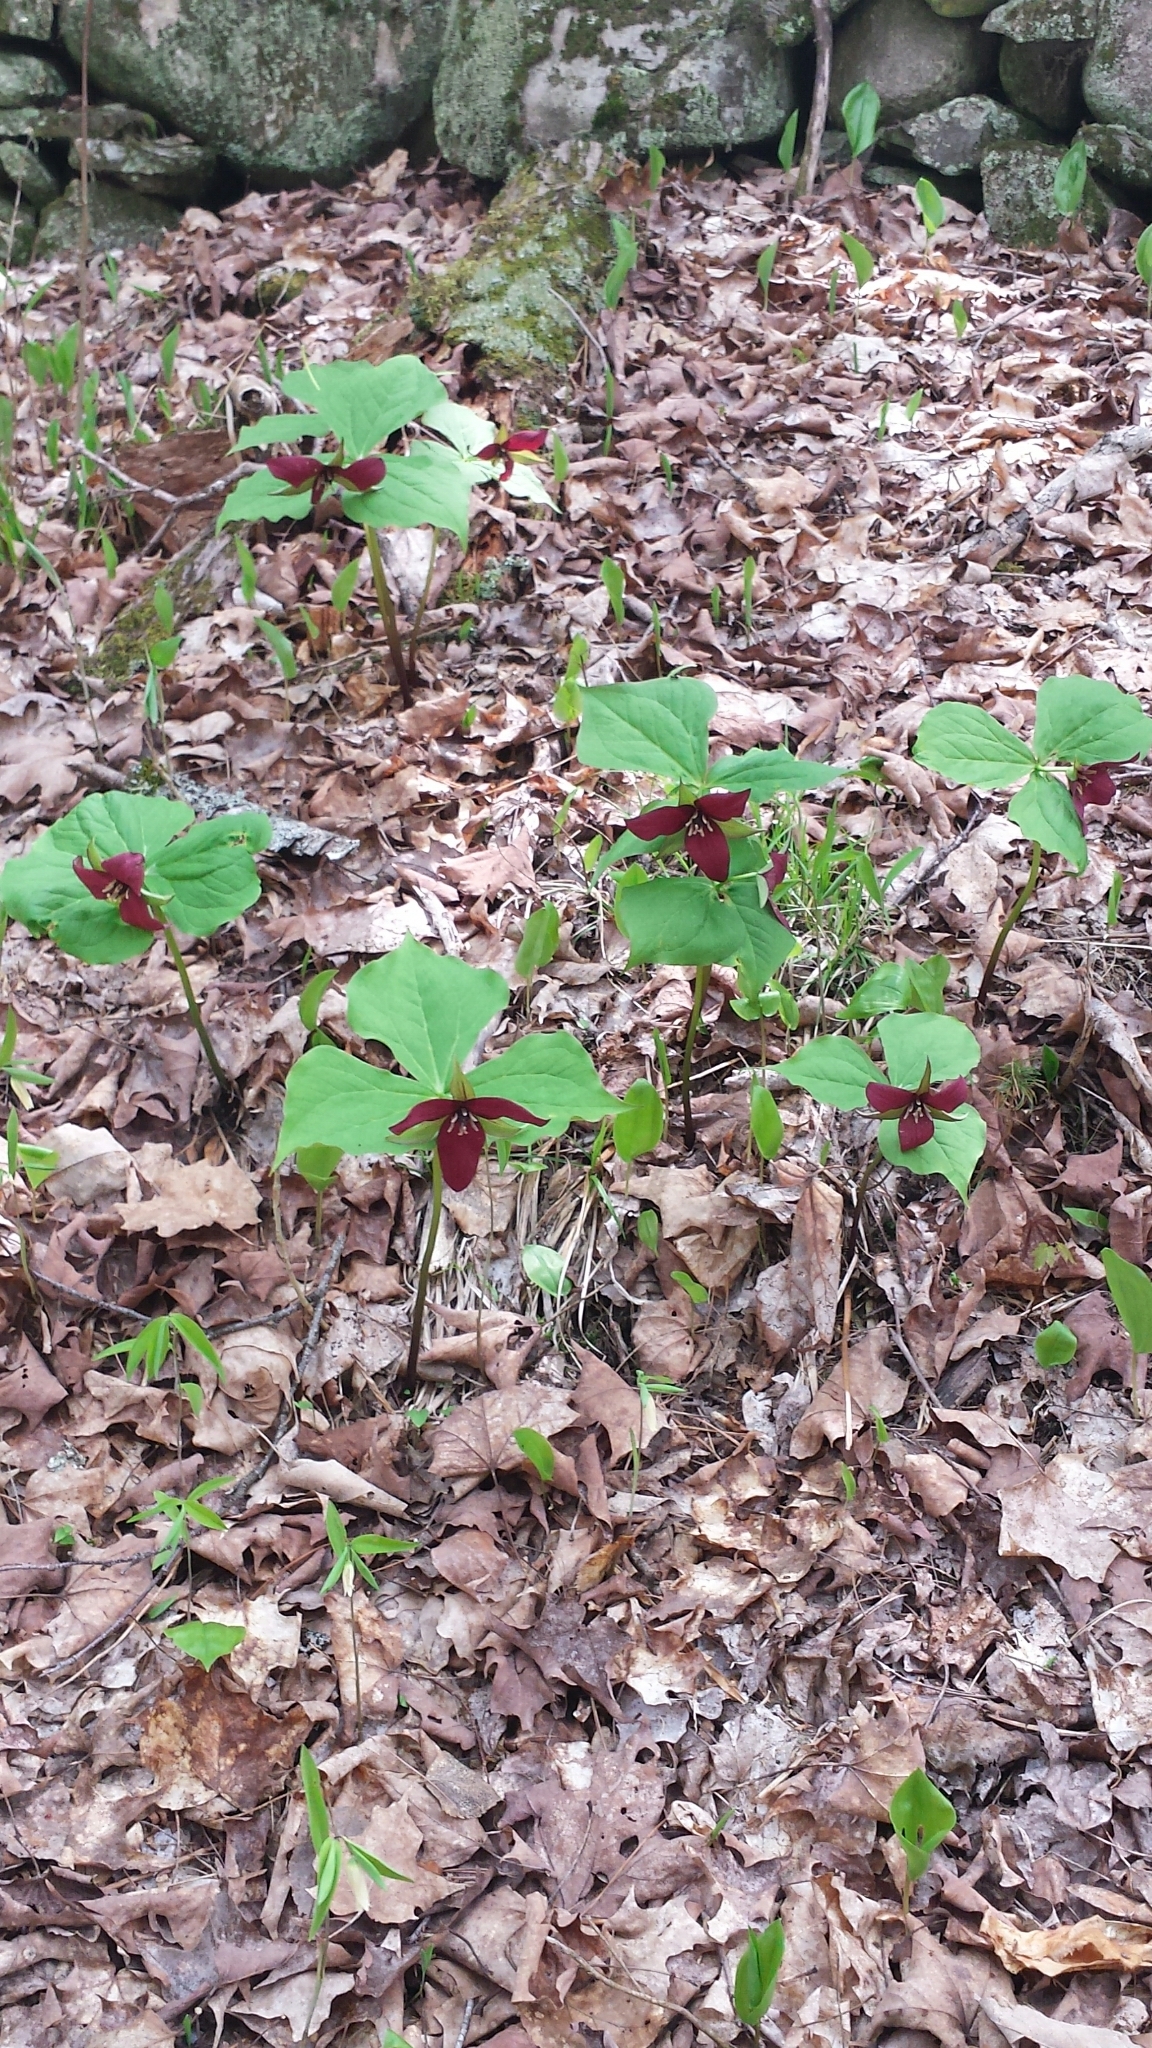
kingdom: Plantae
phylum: Tracheophyta
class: Liliopsida
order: Liliales
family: Melanthiaceae
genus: Trillium
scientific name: Trillium erectum
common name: Purple trillium
